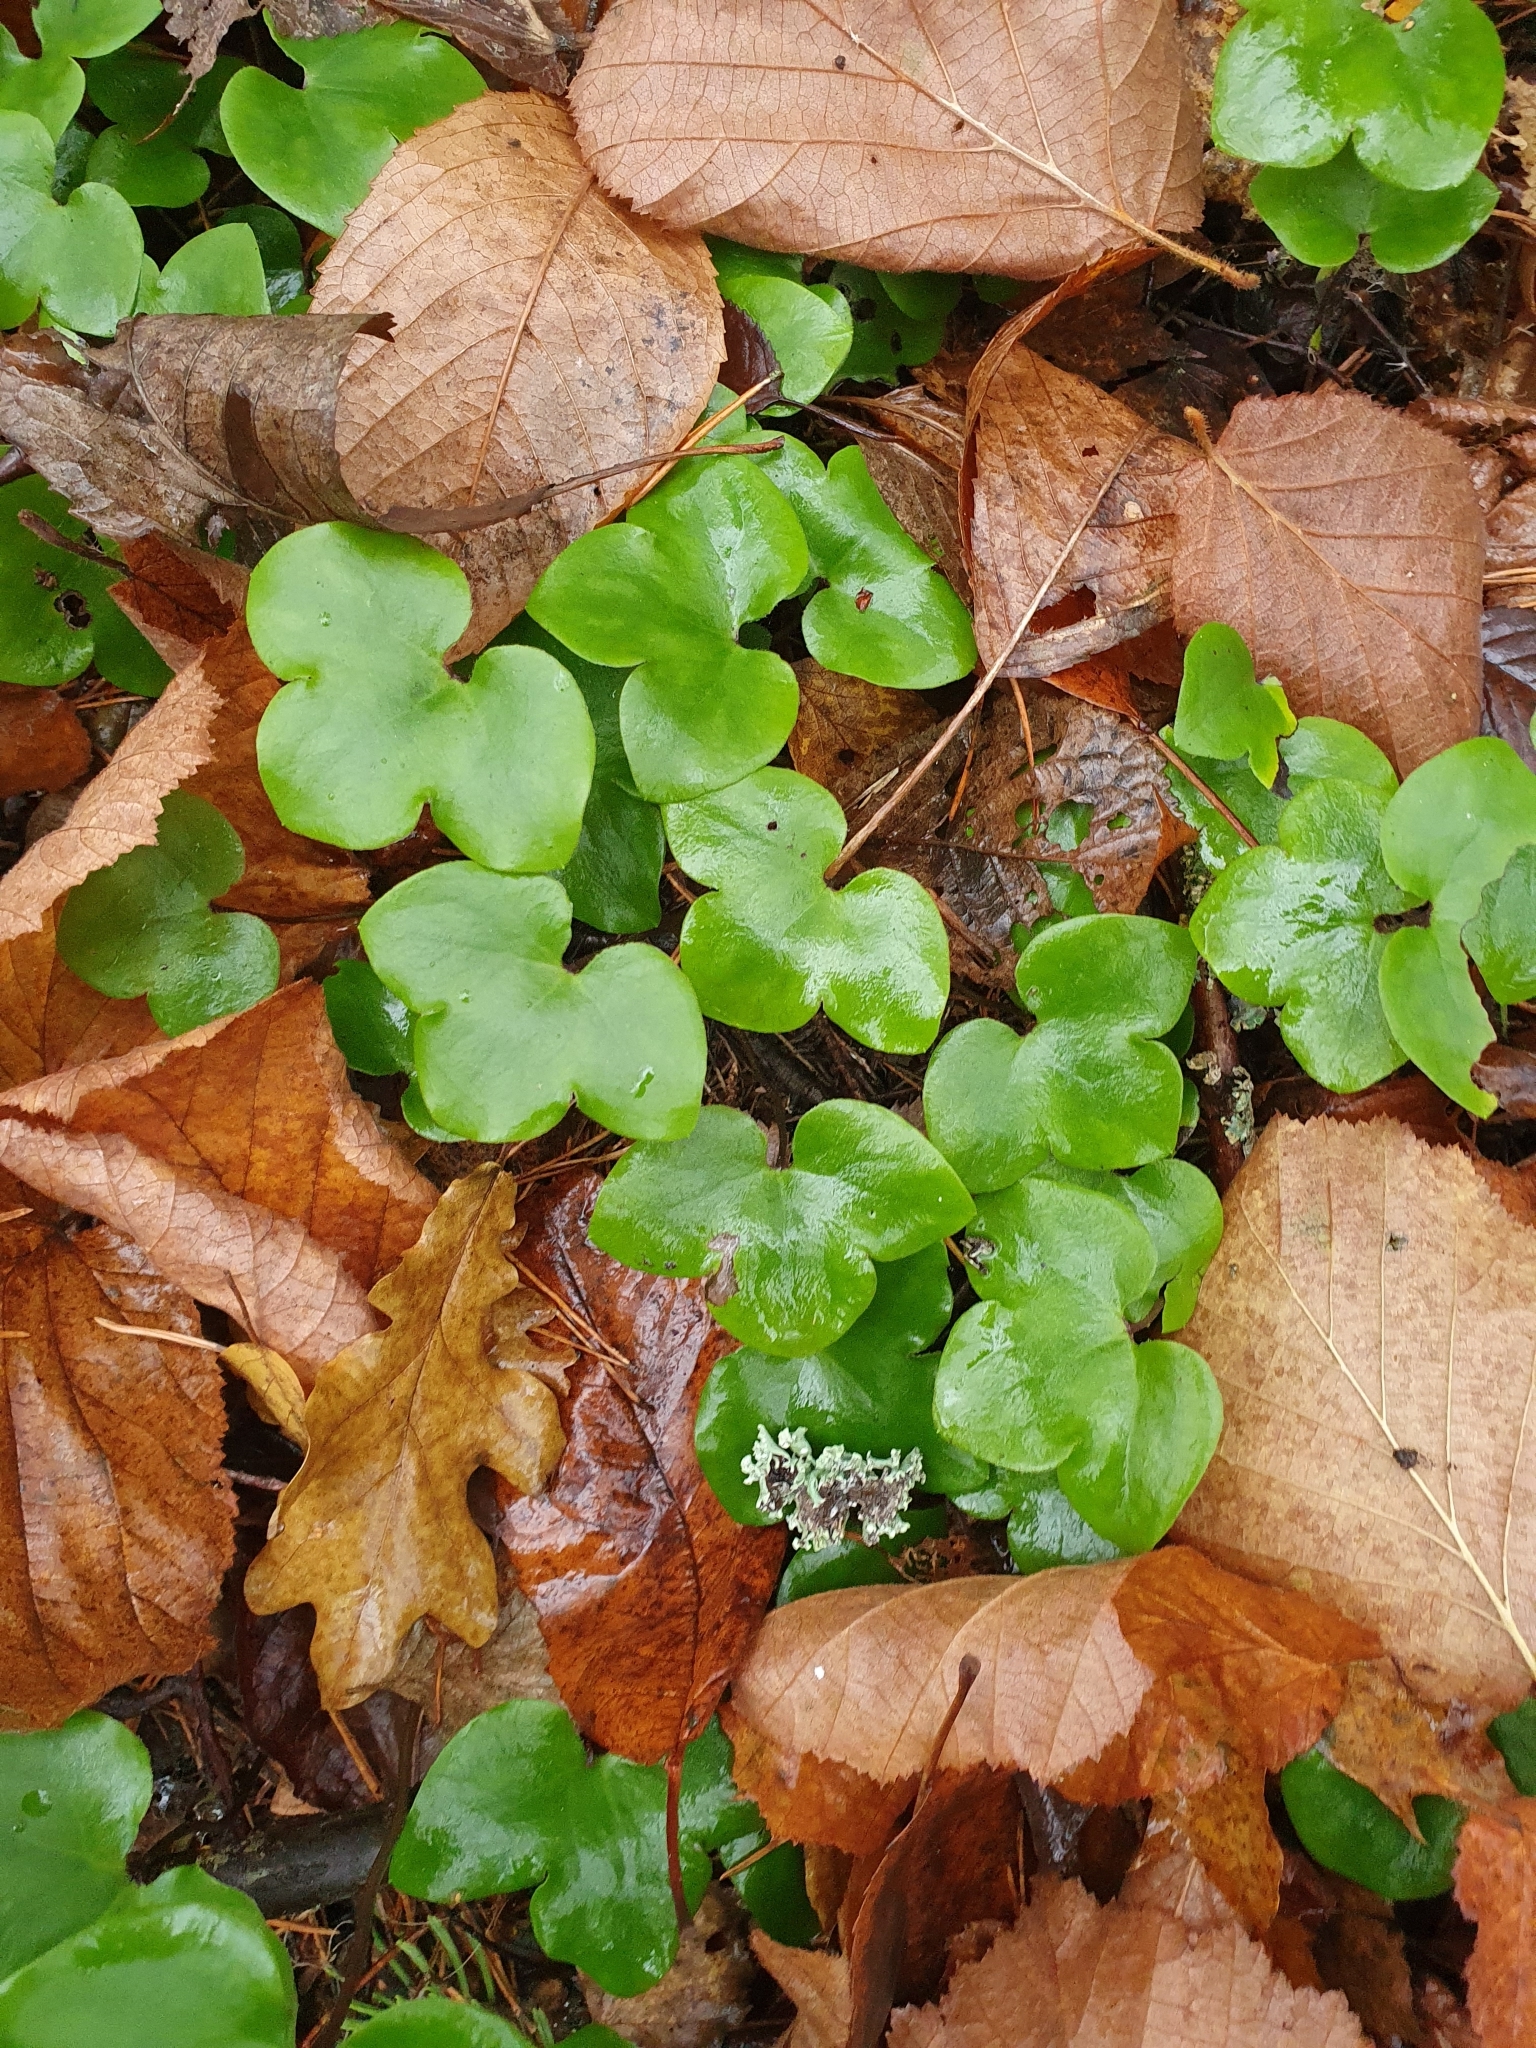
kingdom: Plantae
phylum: Tracheophyta
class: Magnoliopsida
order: Ranunculales
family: Ranunculaceae
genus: Hepatica
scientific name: Hepatica nobilis
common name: Liverleaf
